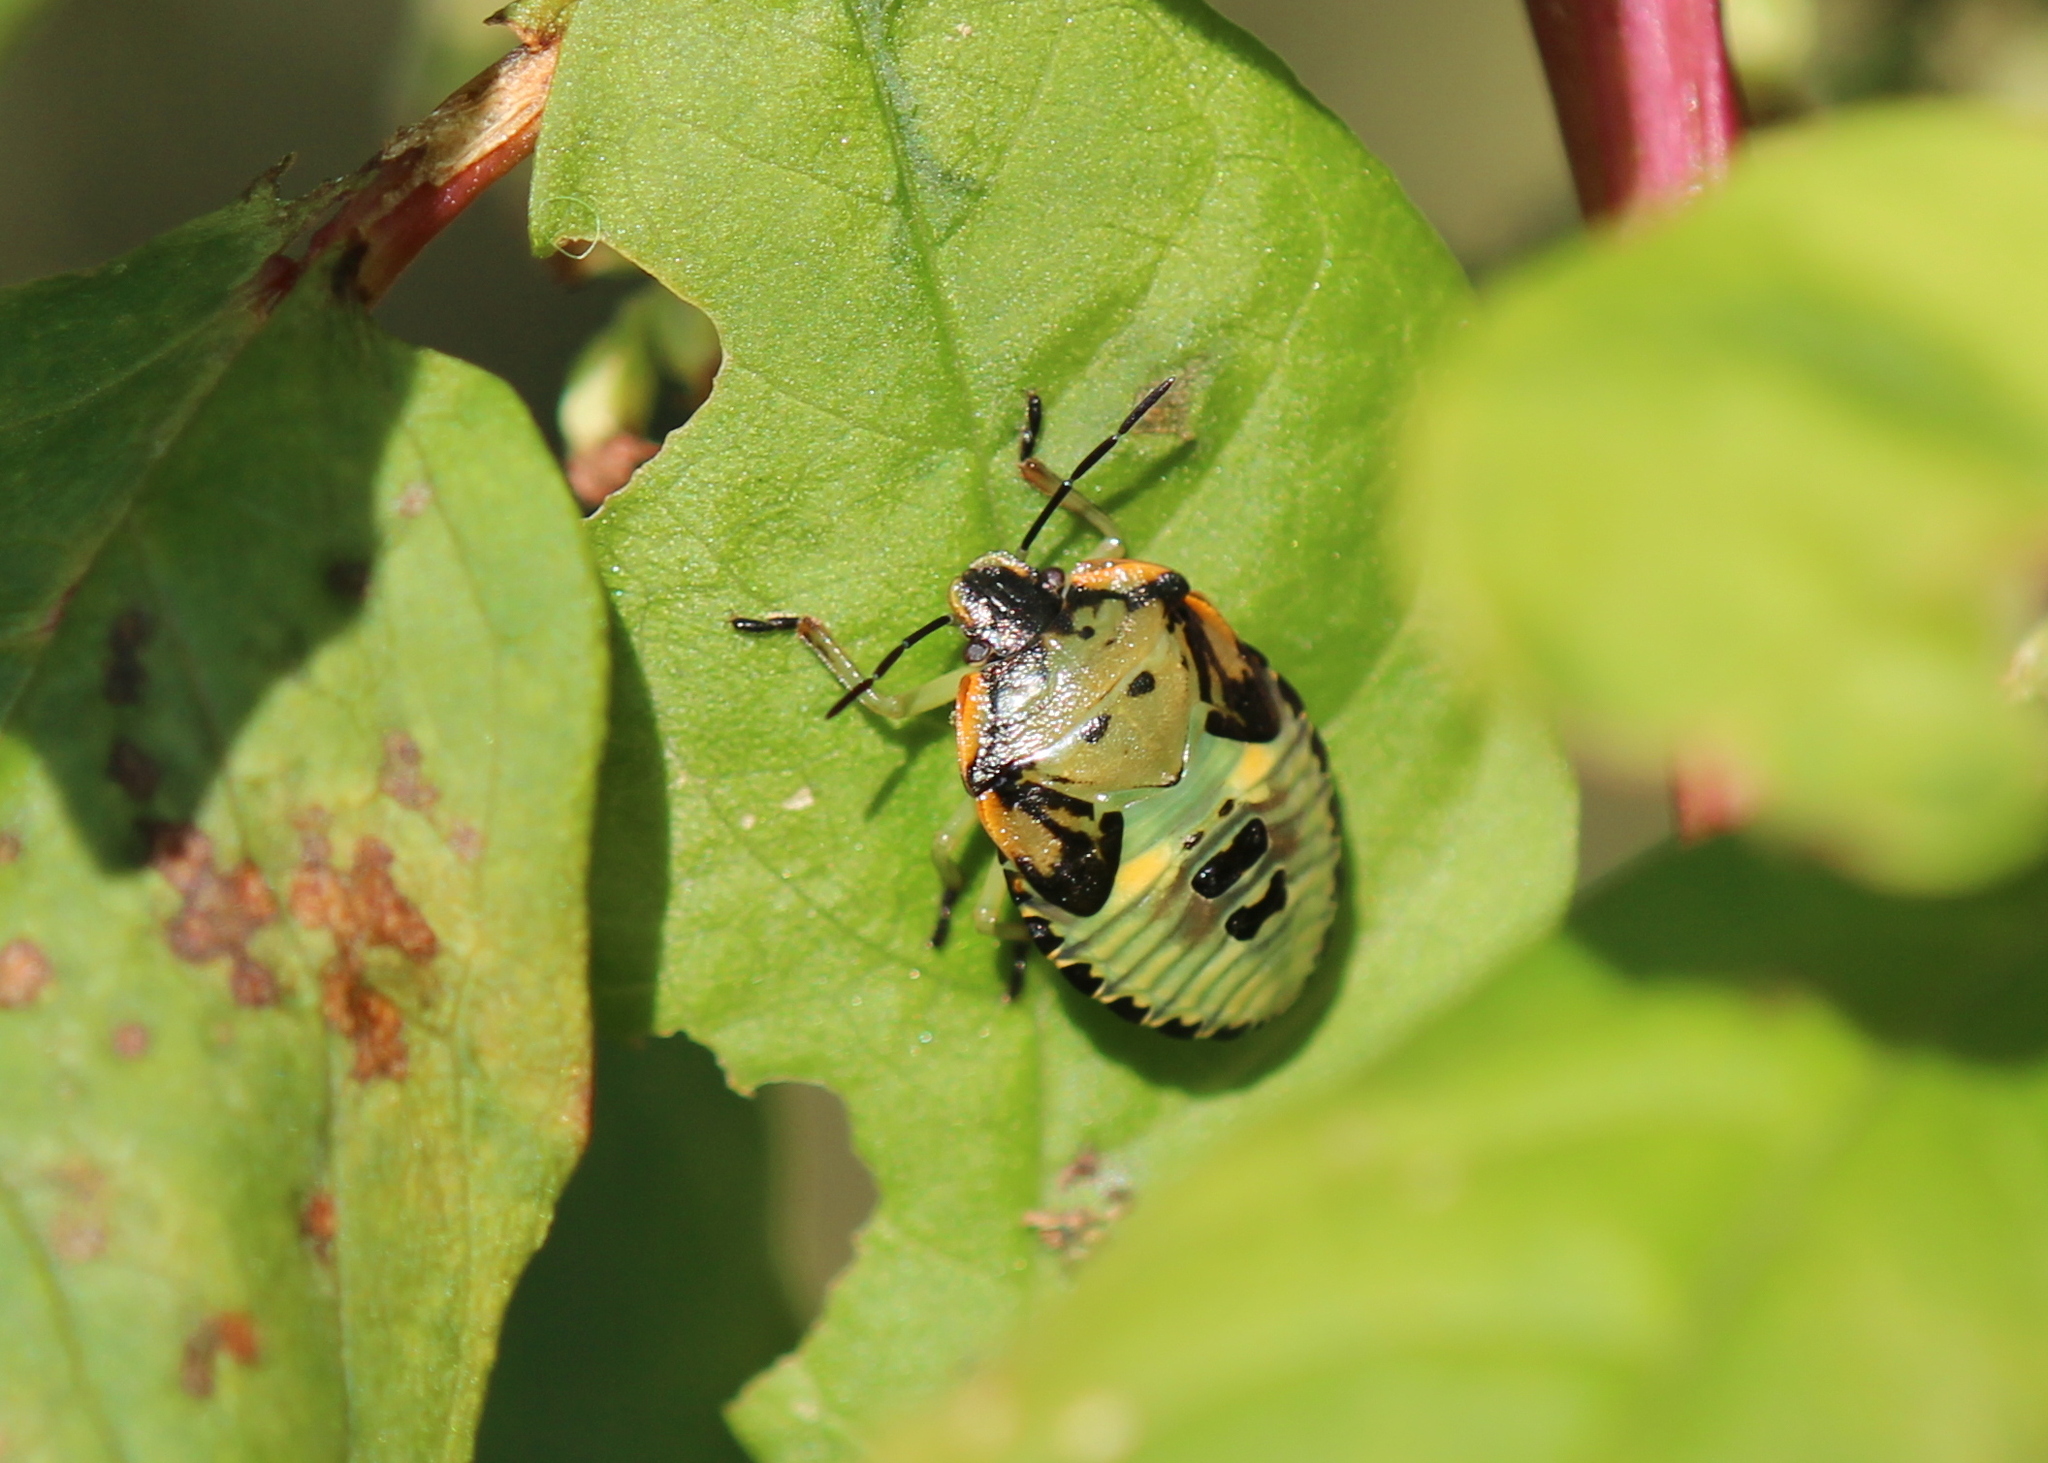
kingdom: Animalia
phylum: Arthropoda
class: Insecta
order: Hemiptera
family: Pentatomidae
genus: Chinavia
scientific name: Chinavia hilaris
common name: Green stink bug
